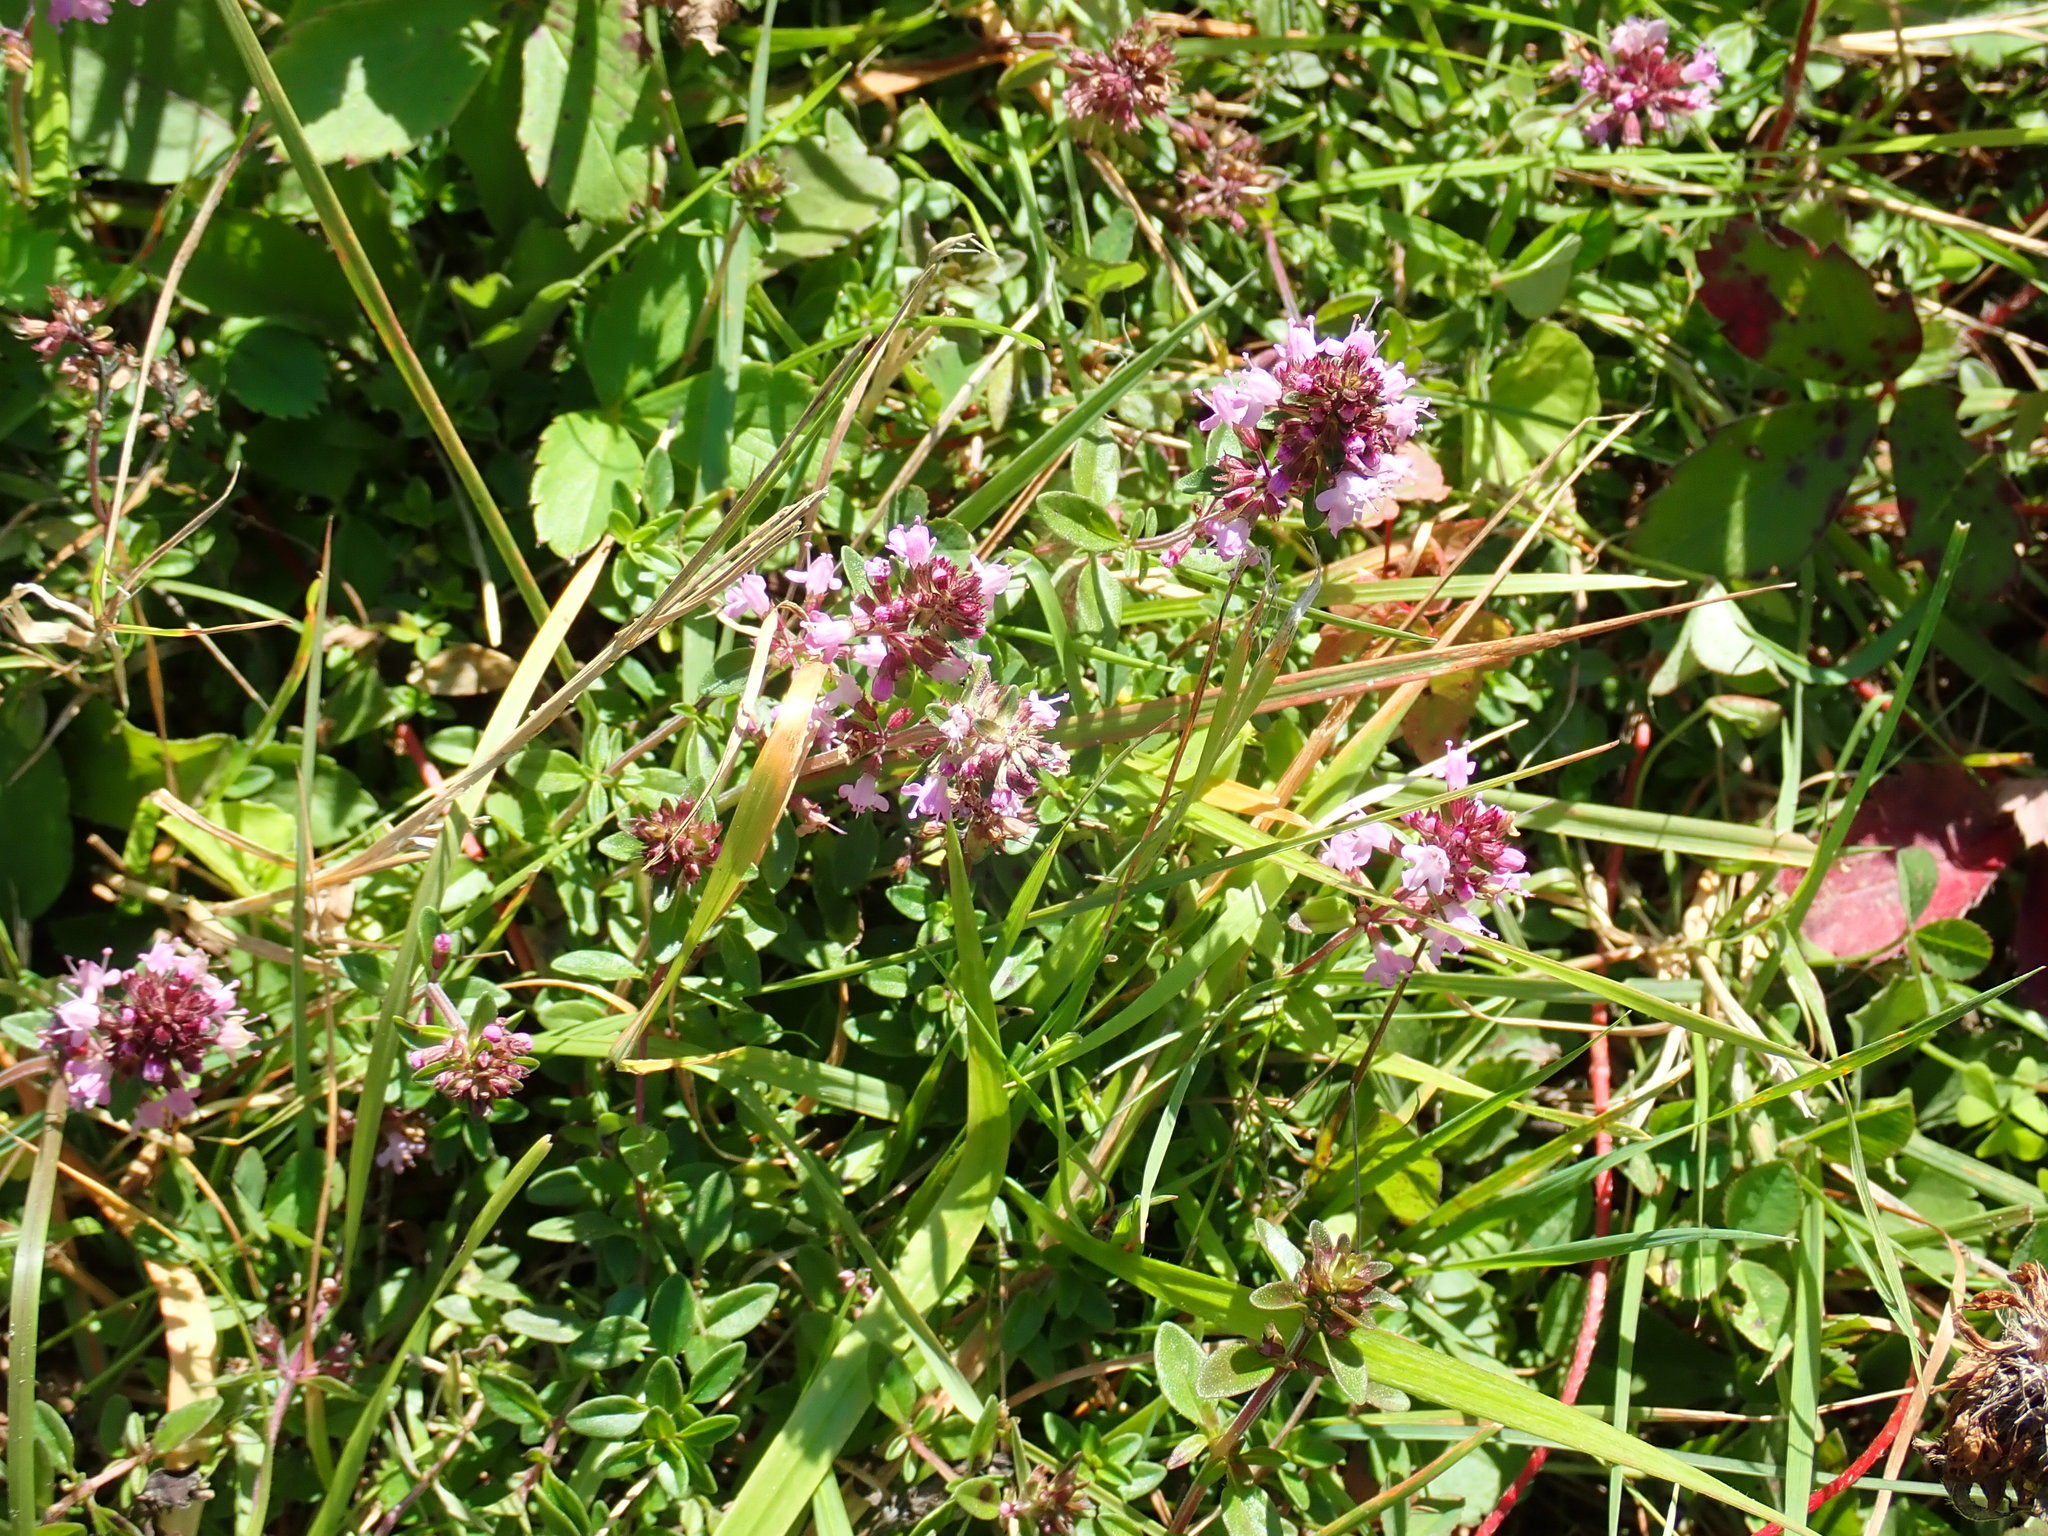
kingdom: Plantae
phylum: Tracheophyta
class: Magnoliopsida
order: Lamiales
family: Lamiaceae
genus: Thymus
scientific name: Thymus pulegioides
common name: Large thyme
